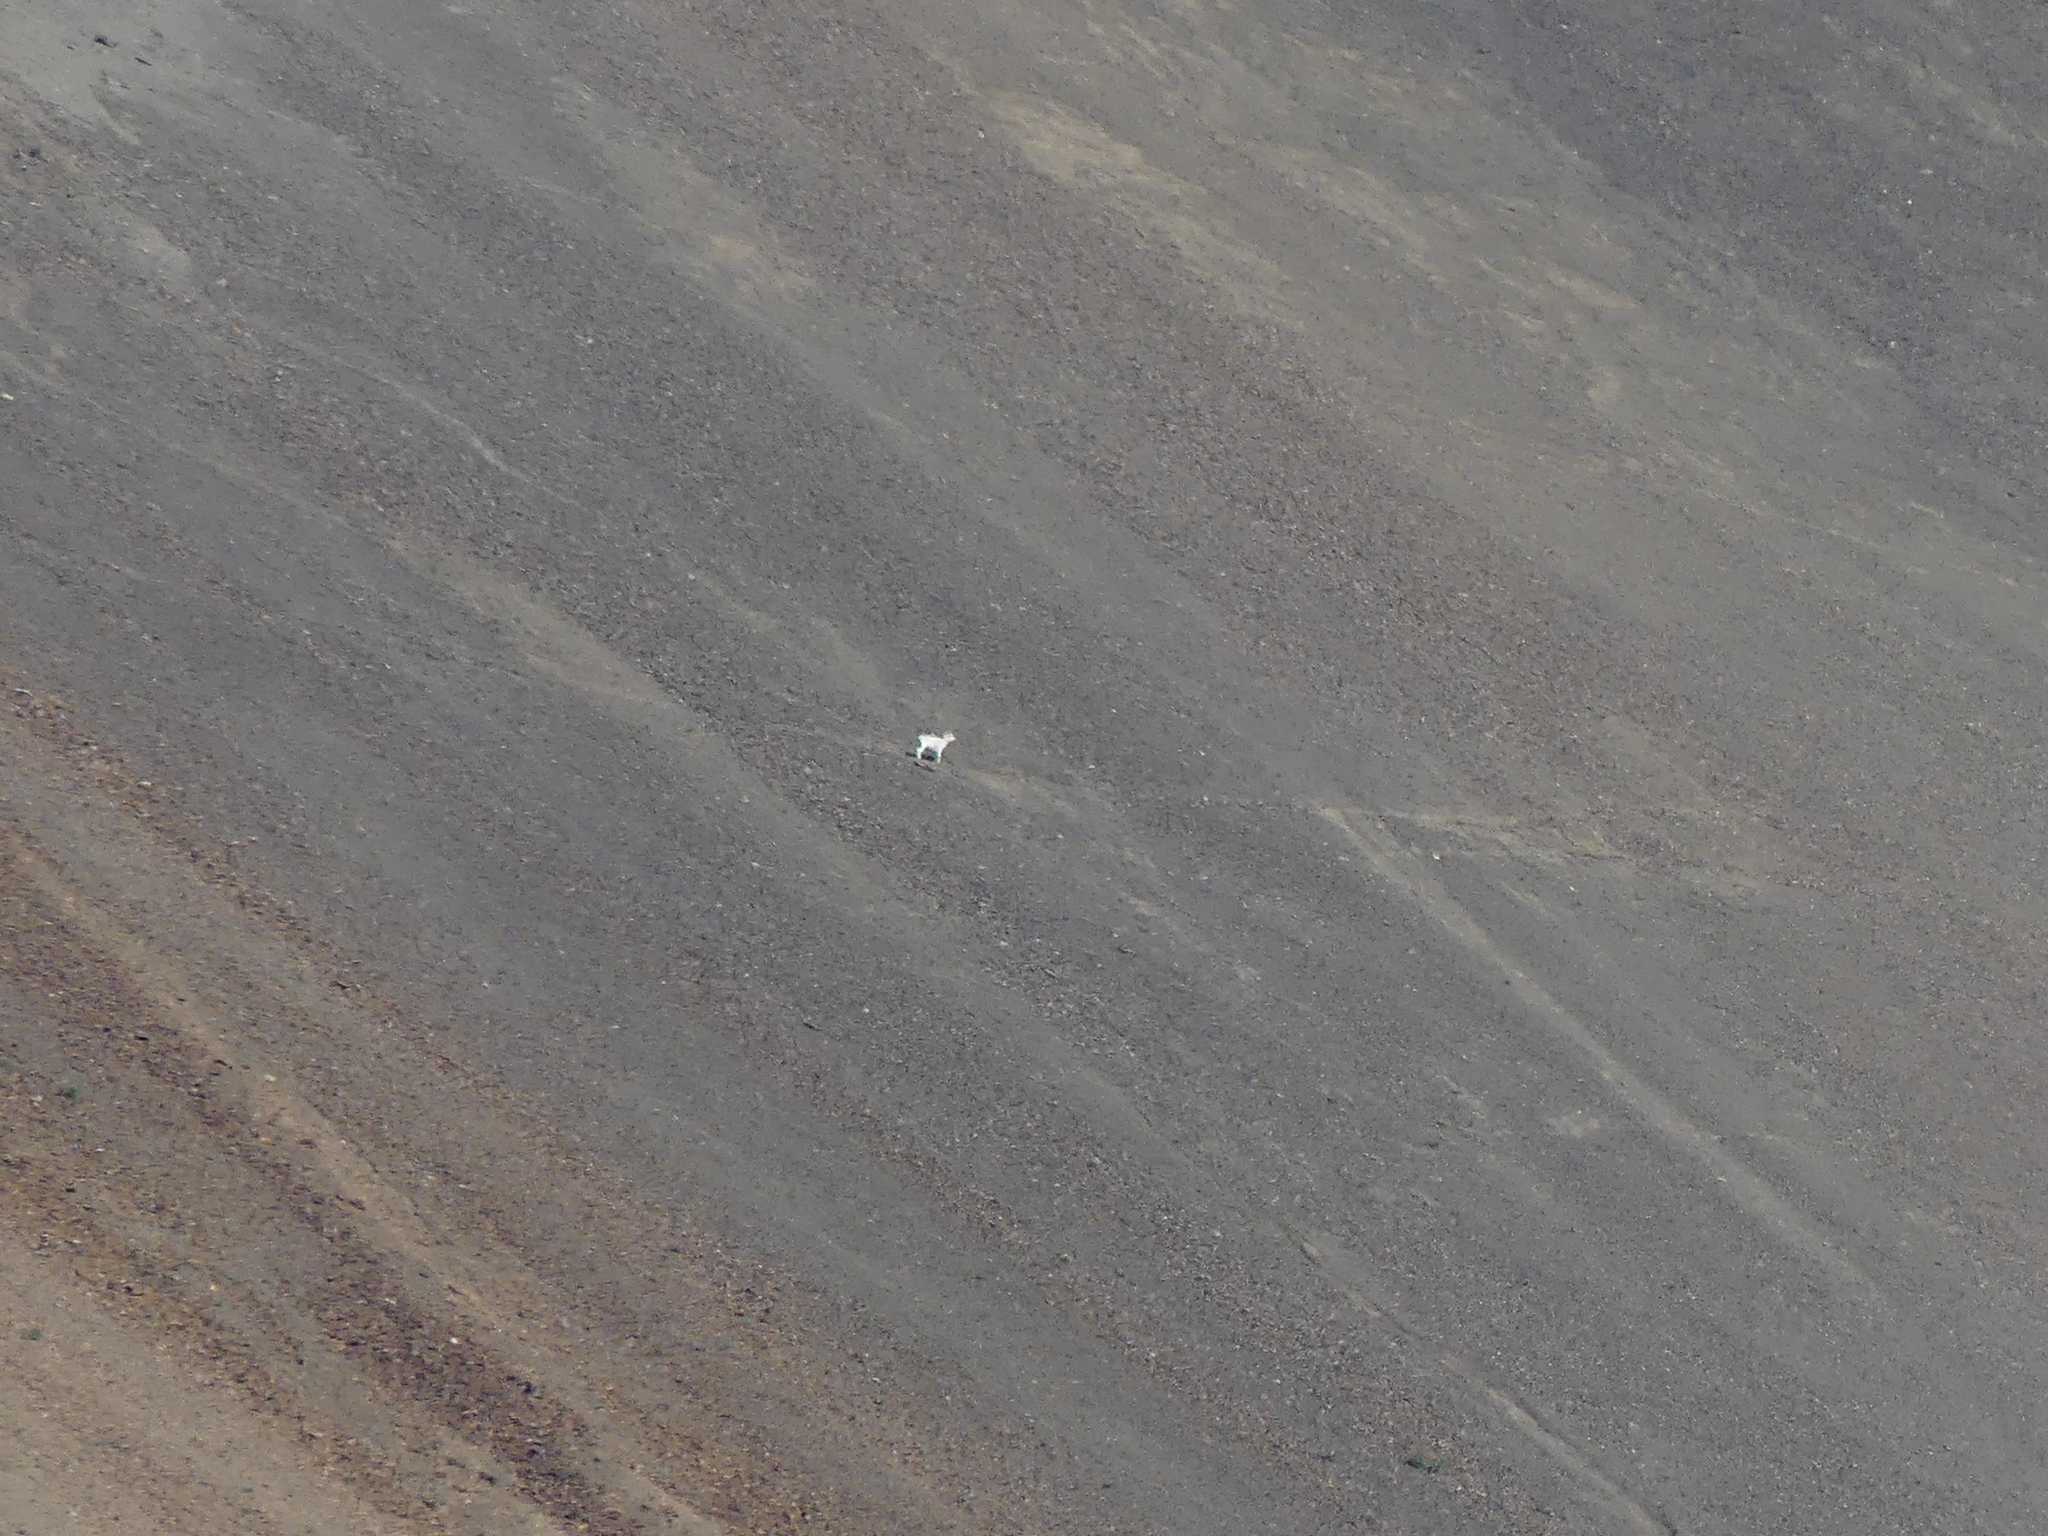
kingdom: Animalia
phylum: Chordata
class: Mammalia
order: Artiodactyla
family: Bovidae
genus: Ovis
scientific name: Ovis dalli
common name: Dall's sheep
